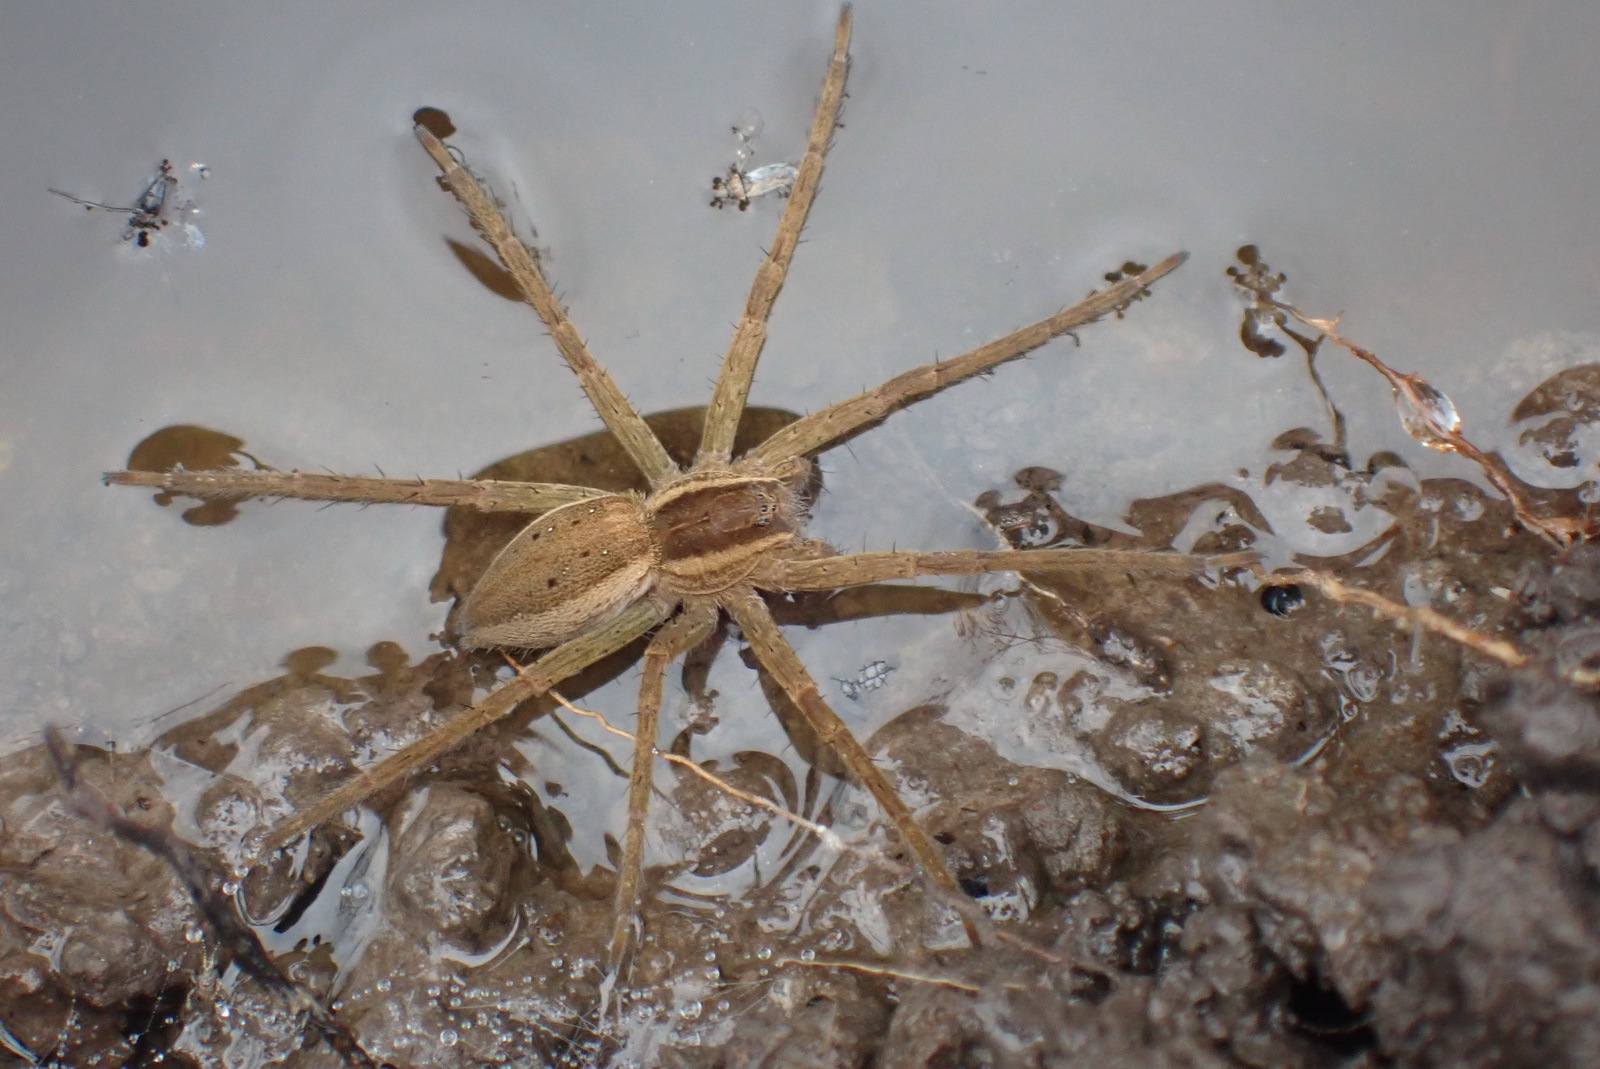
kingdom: Animalia
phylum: Arthropoda
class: Arachnida
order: Araneae
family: Pisauridae
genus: Nilus
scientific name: Nilus margaritatus
